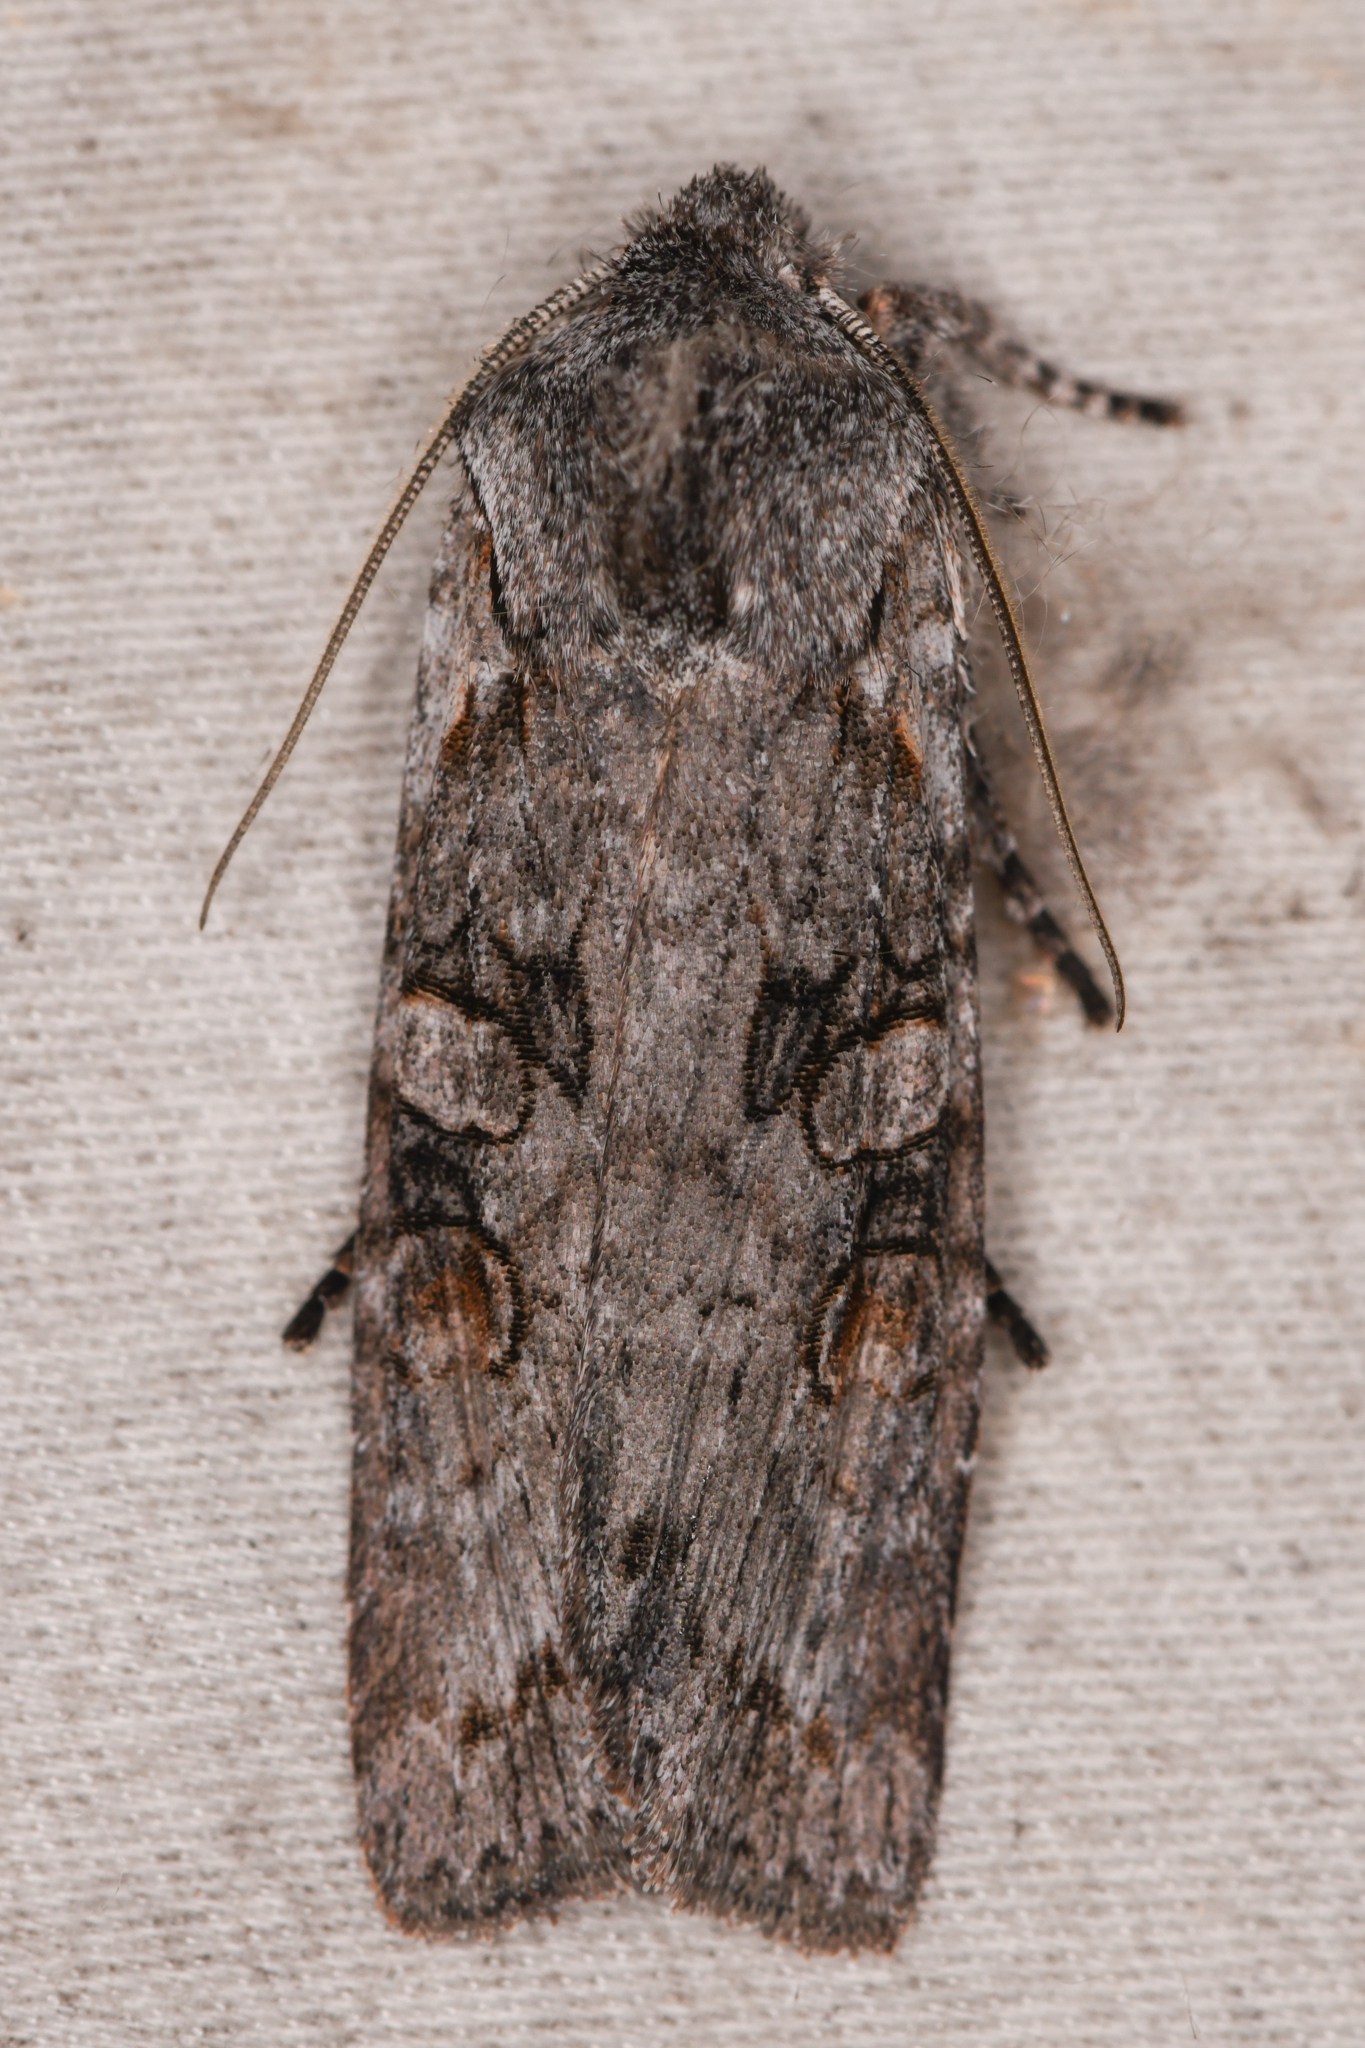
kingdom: Animalia
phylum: Arthropoda
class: Insecta
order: Lepidoptera
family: Noctuidae
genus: Lithophane
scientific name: Lithophane pertorrida
